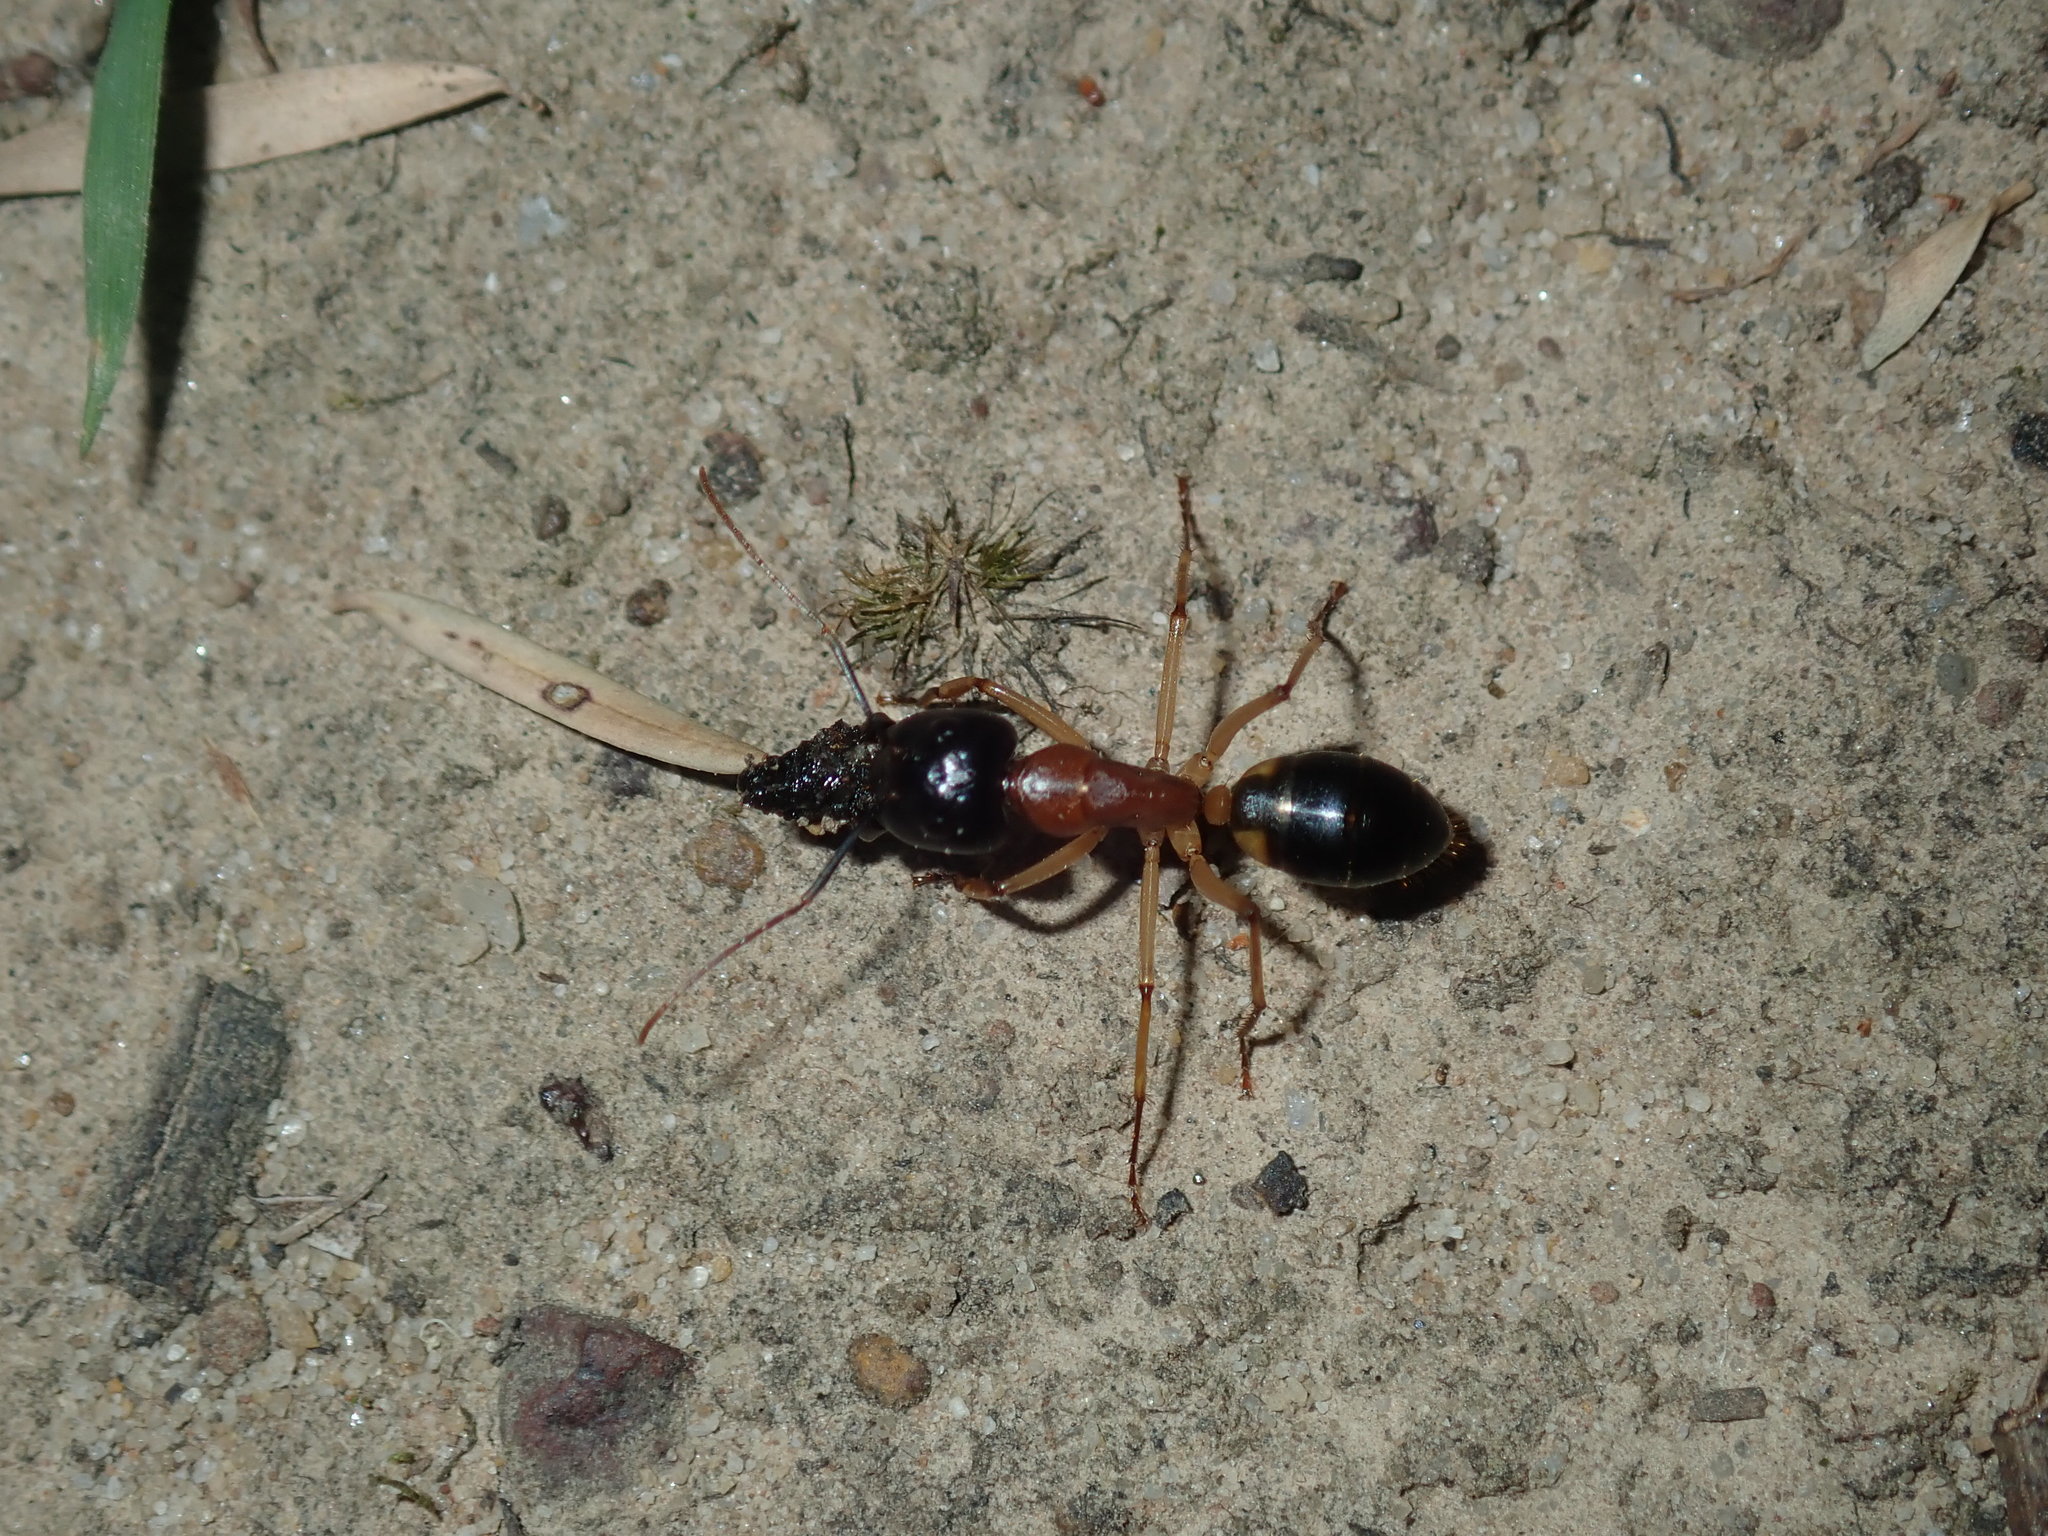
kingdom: Animalia
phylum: Arthropoda
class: Insecta
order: Hymenoptera
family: Formicidae
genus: Camponotus
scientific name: Camponotus consobrinus
